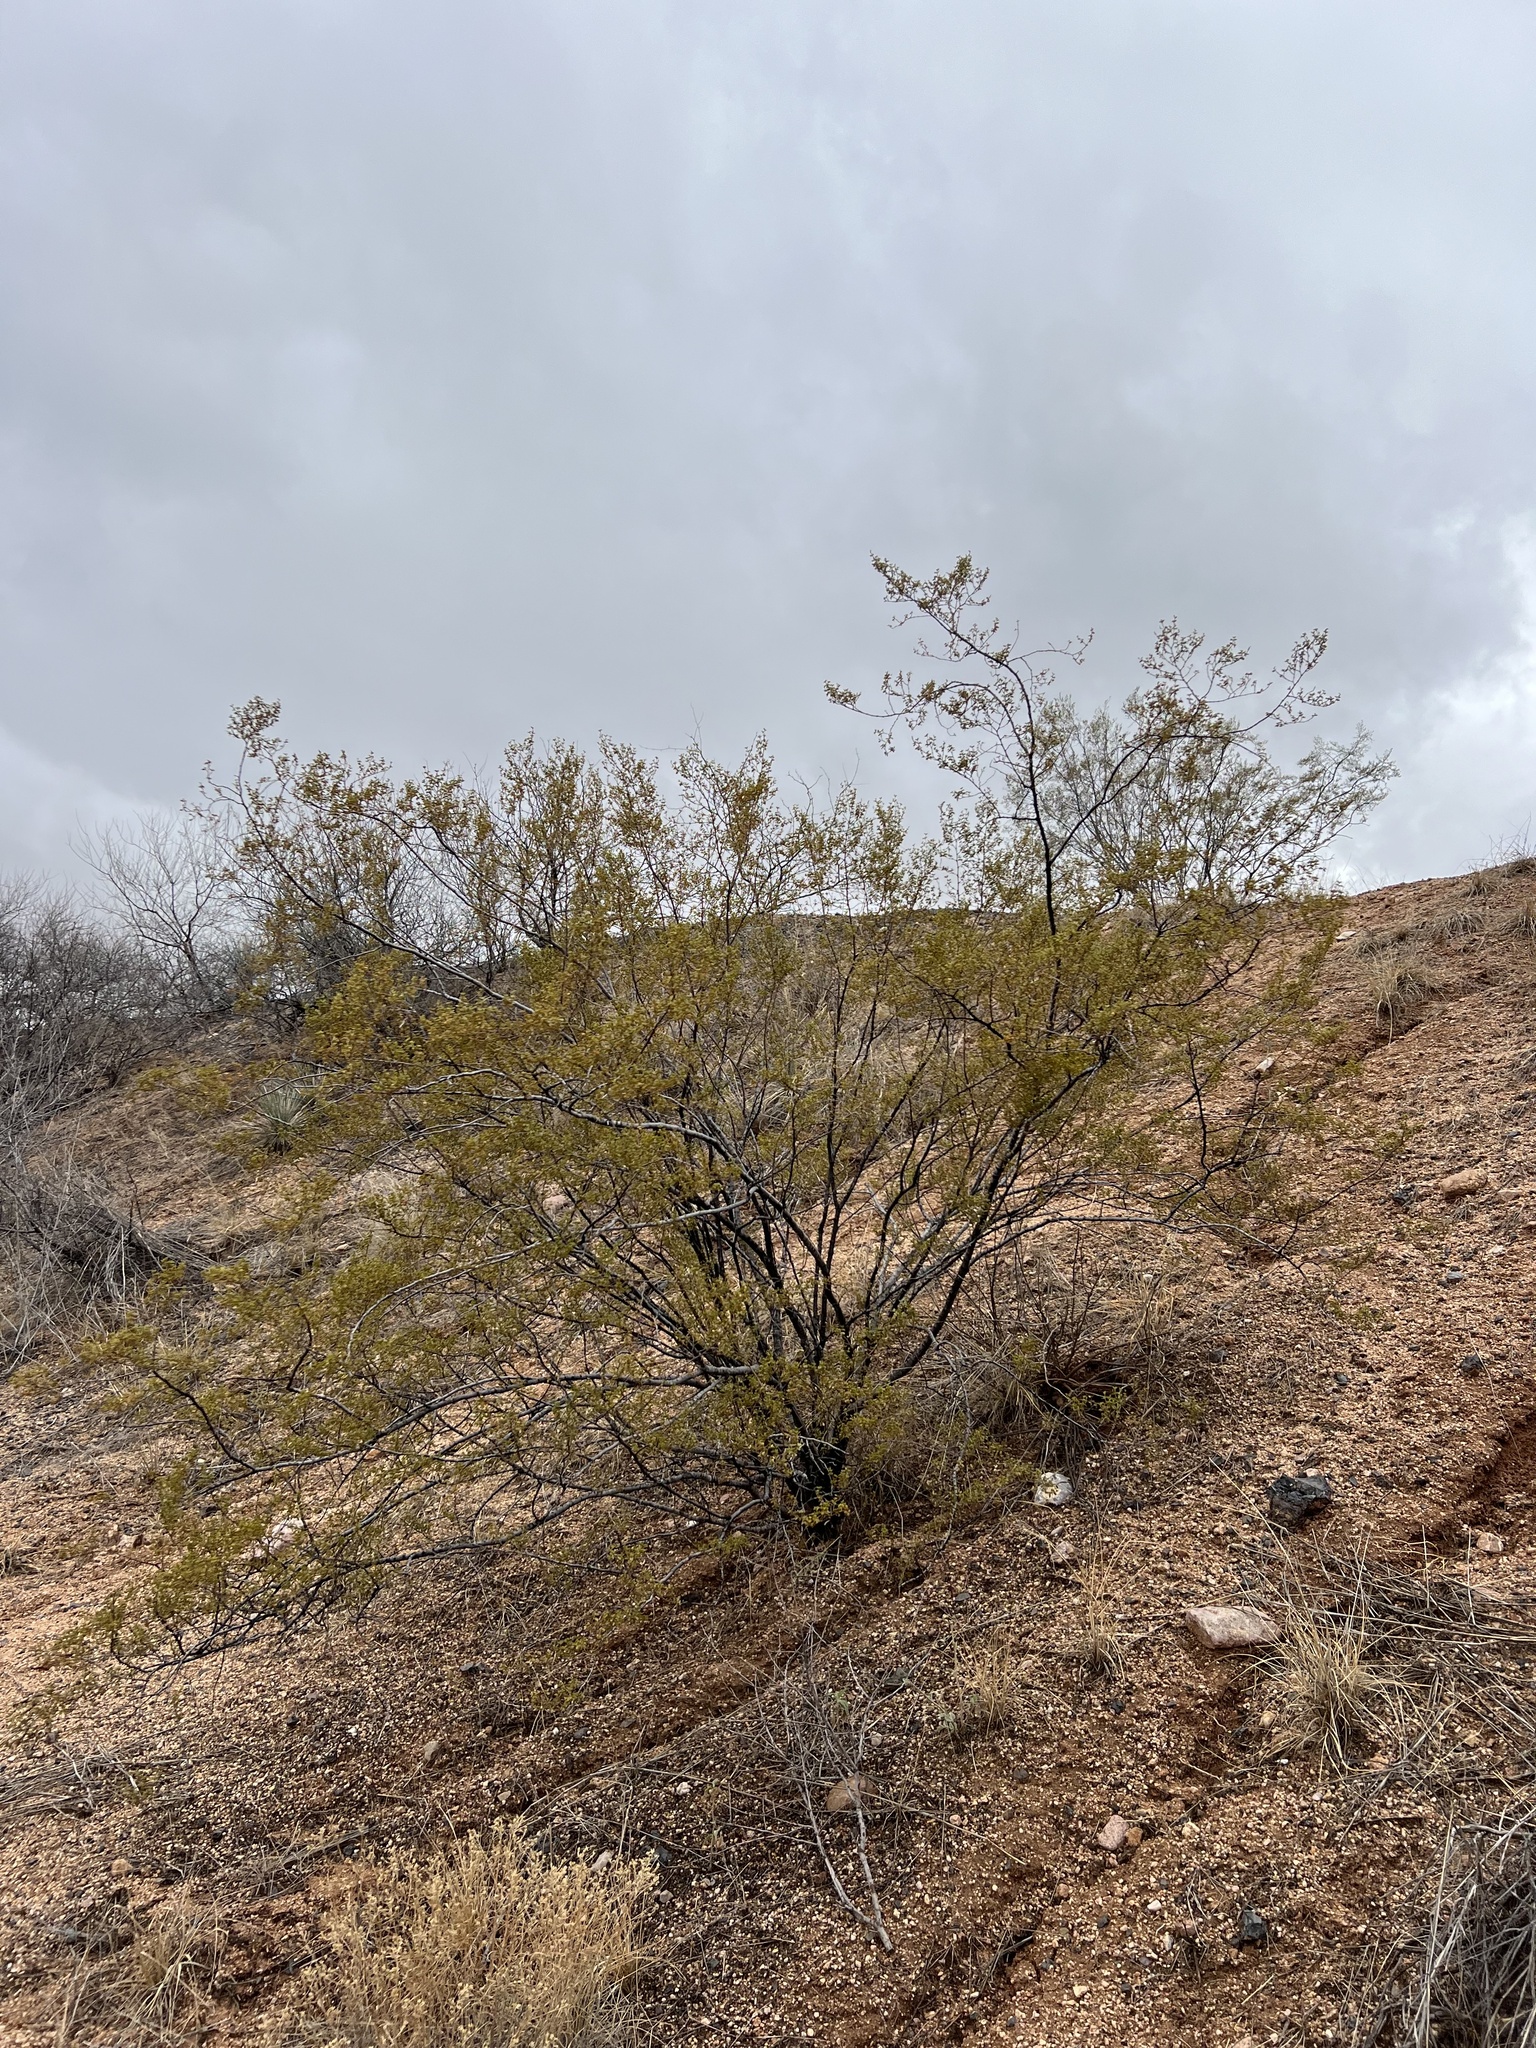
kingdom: Plantae
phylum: Tracheophyta
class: Magnoliopsida
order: Zygophyllales
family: Zygophyllaceae
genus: Larrea
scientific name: Larrea tridentata
